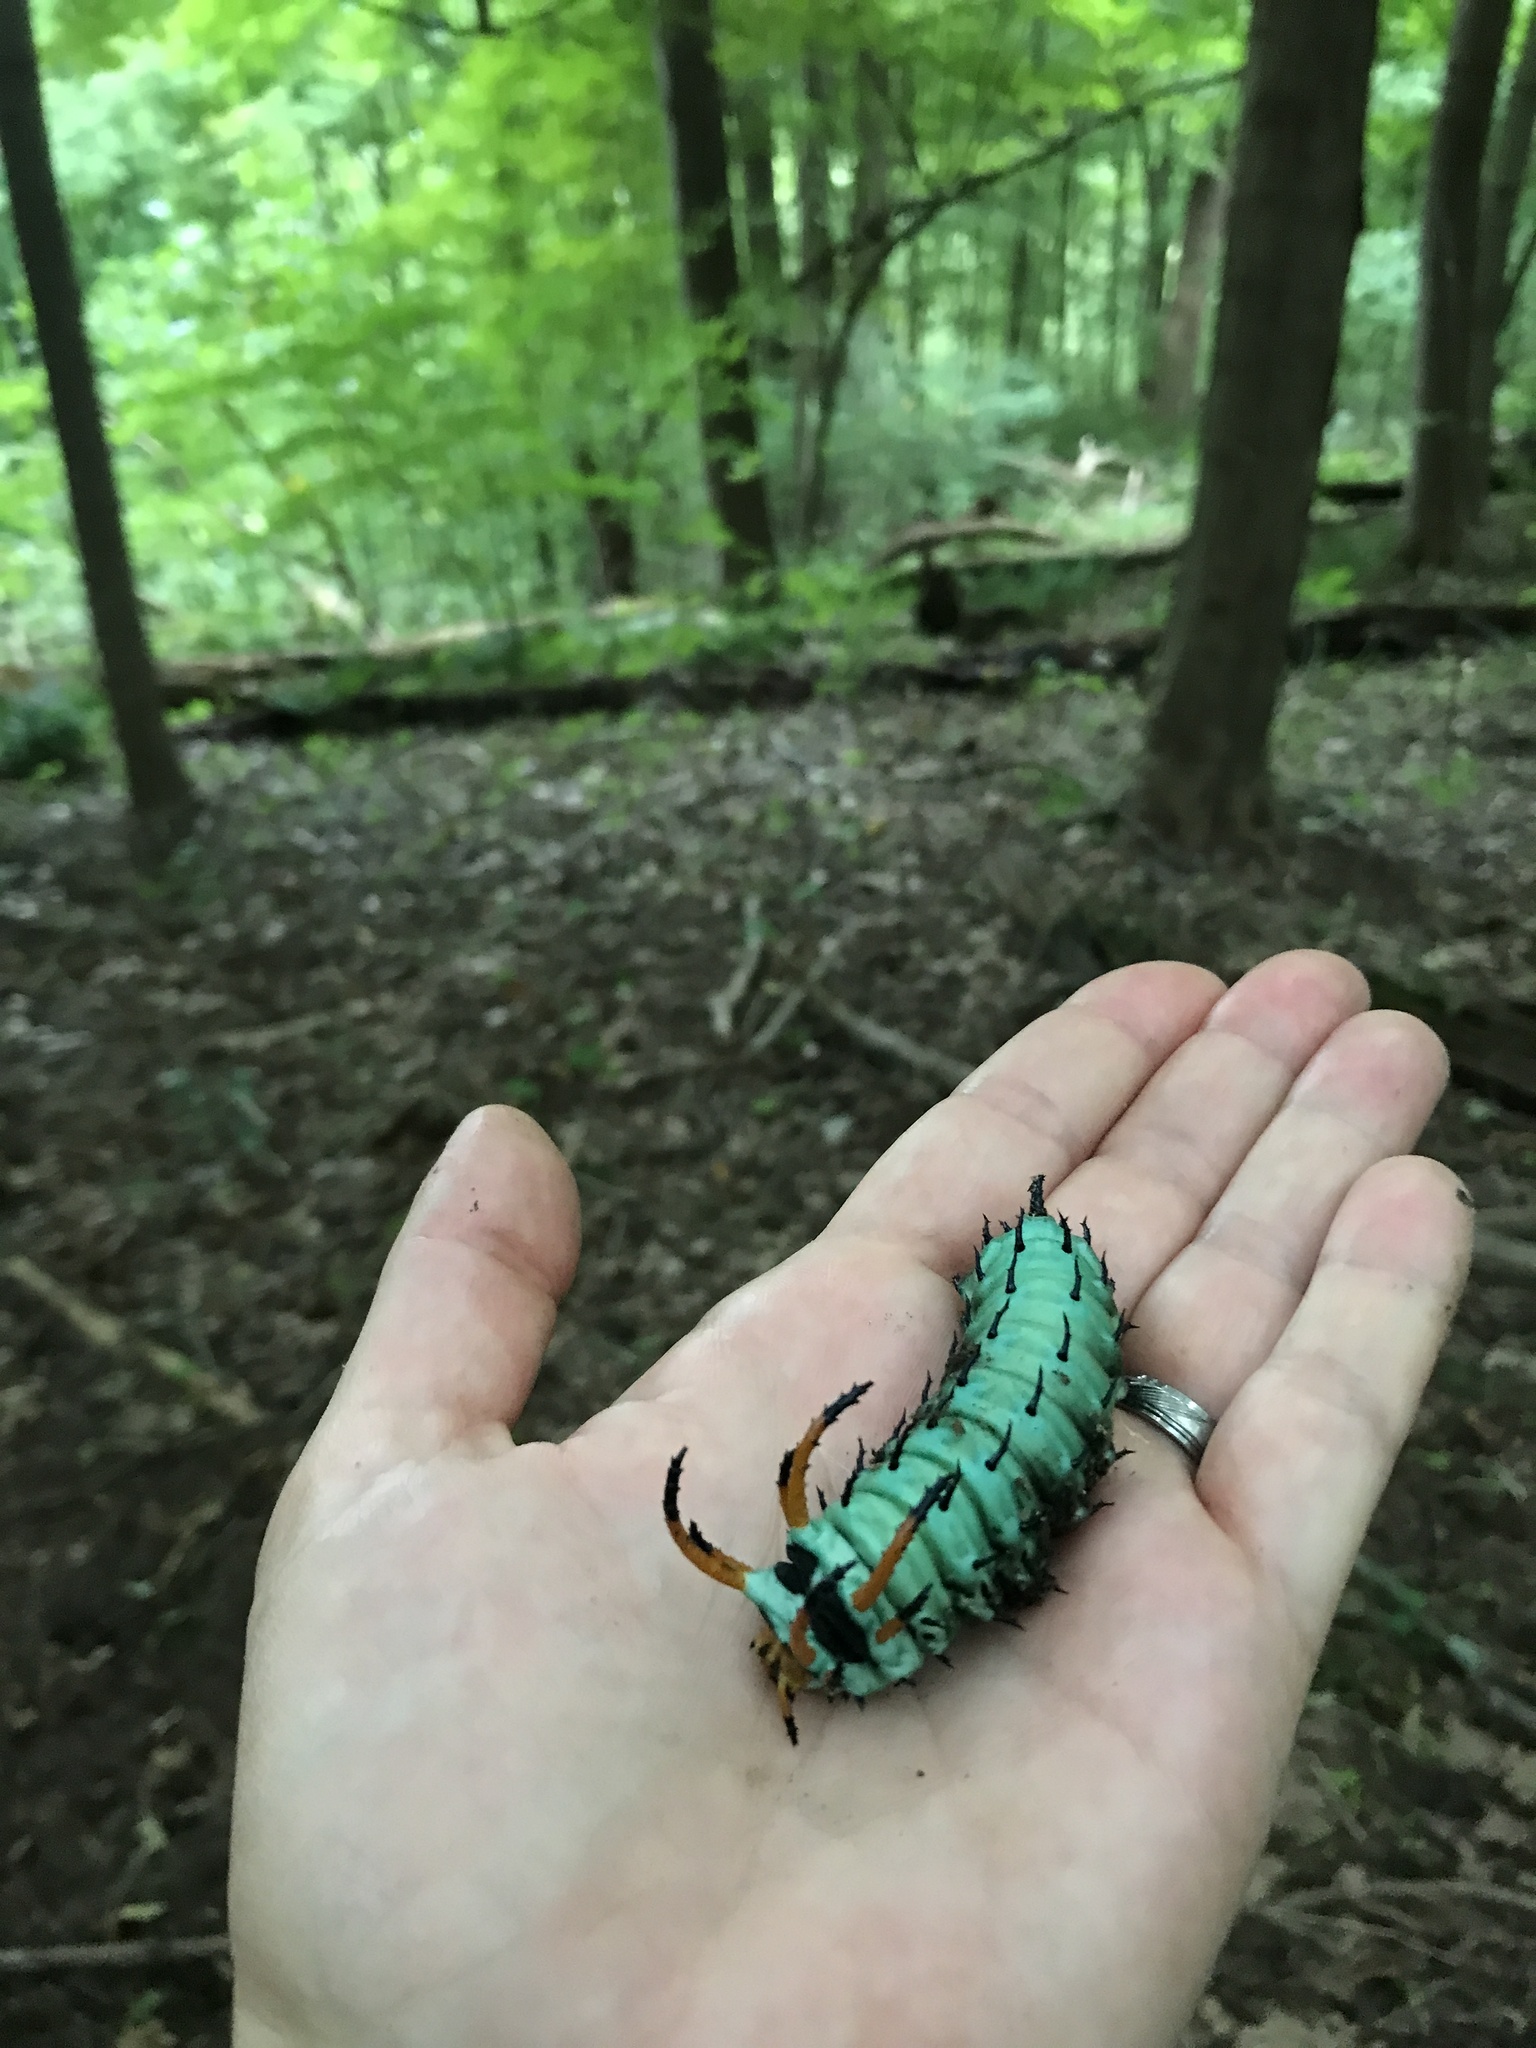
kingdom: Animalia
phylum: Arthropoda
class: Insecta
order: Lepidoptera
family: Saturniidae
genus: Citheronia
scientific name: Citheronia regalis
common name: Hickory horned devil
